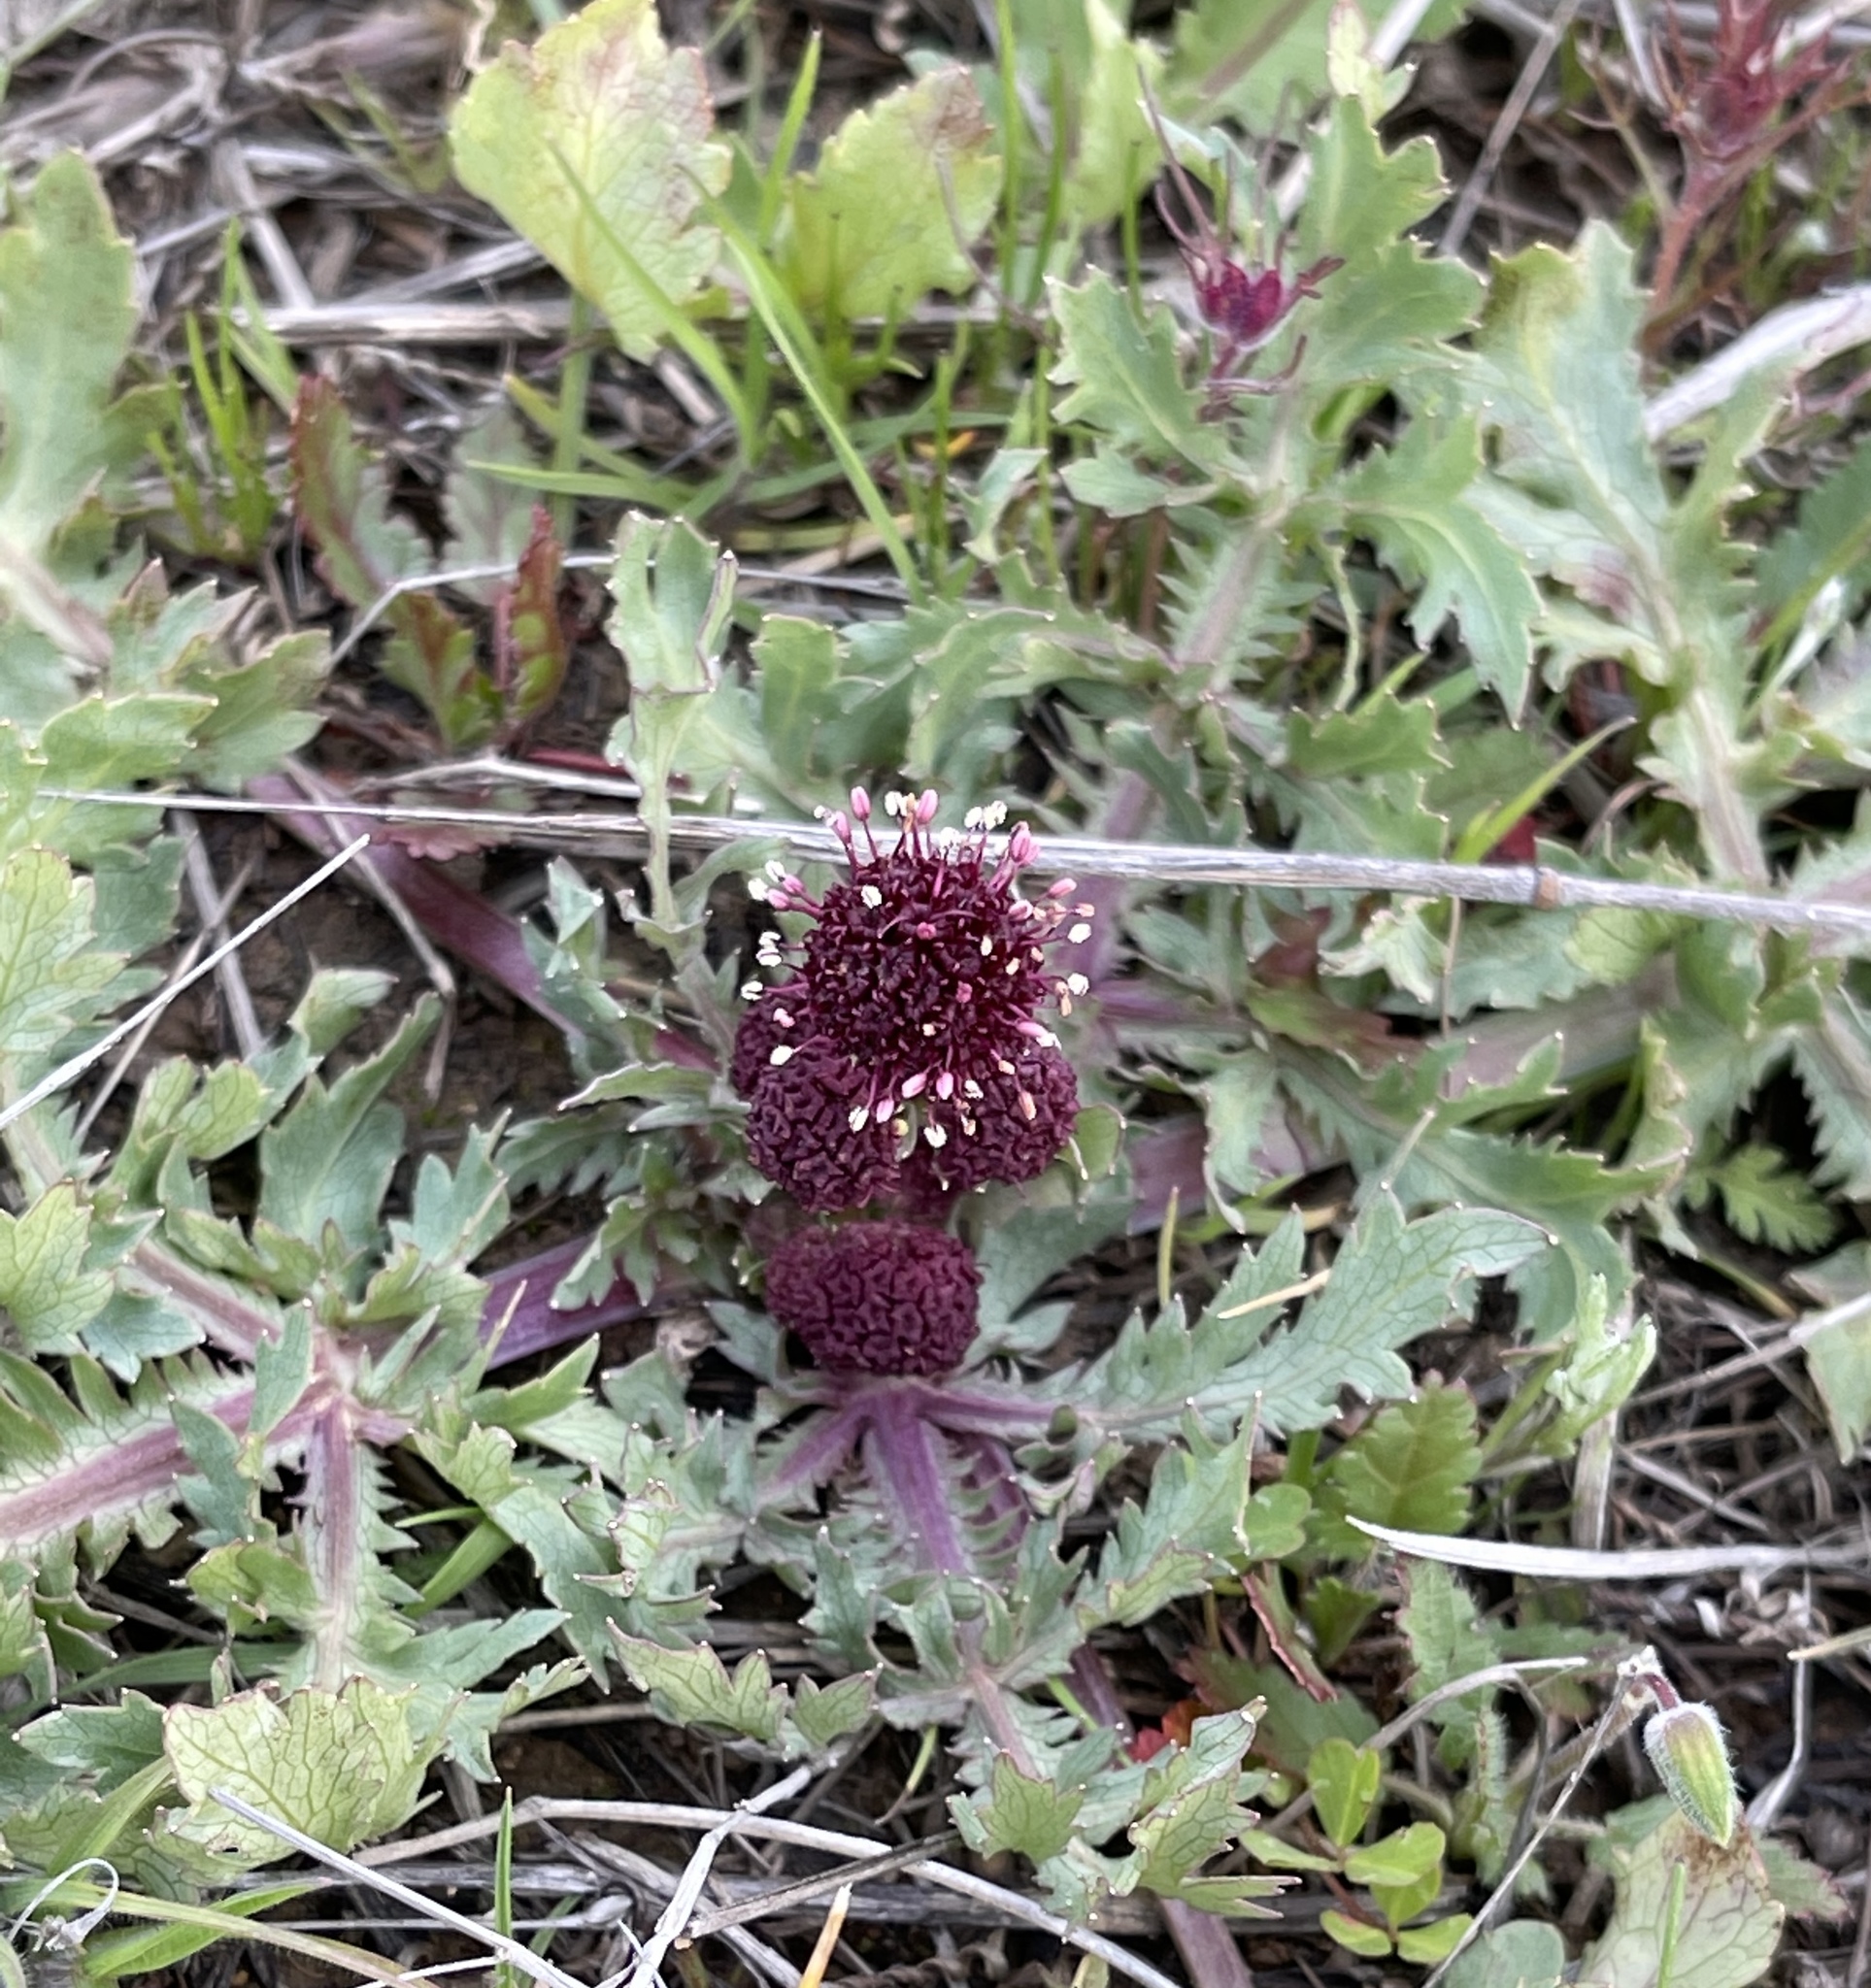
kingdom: Plantae
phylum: Tracheophyta
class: Magnoliopsida
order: Apiales
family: Apiaceae
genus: Sanicula
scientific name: Sanicula bipinnatifida
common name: Shoe-buttons
